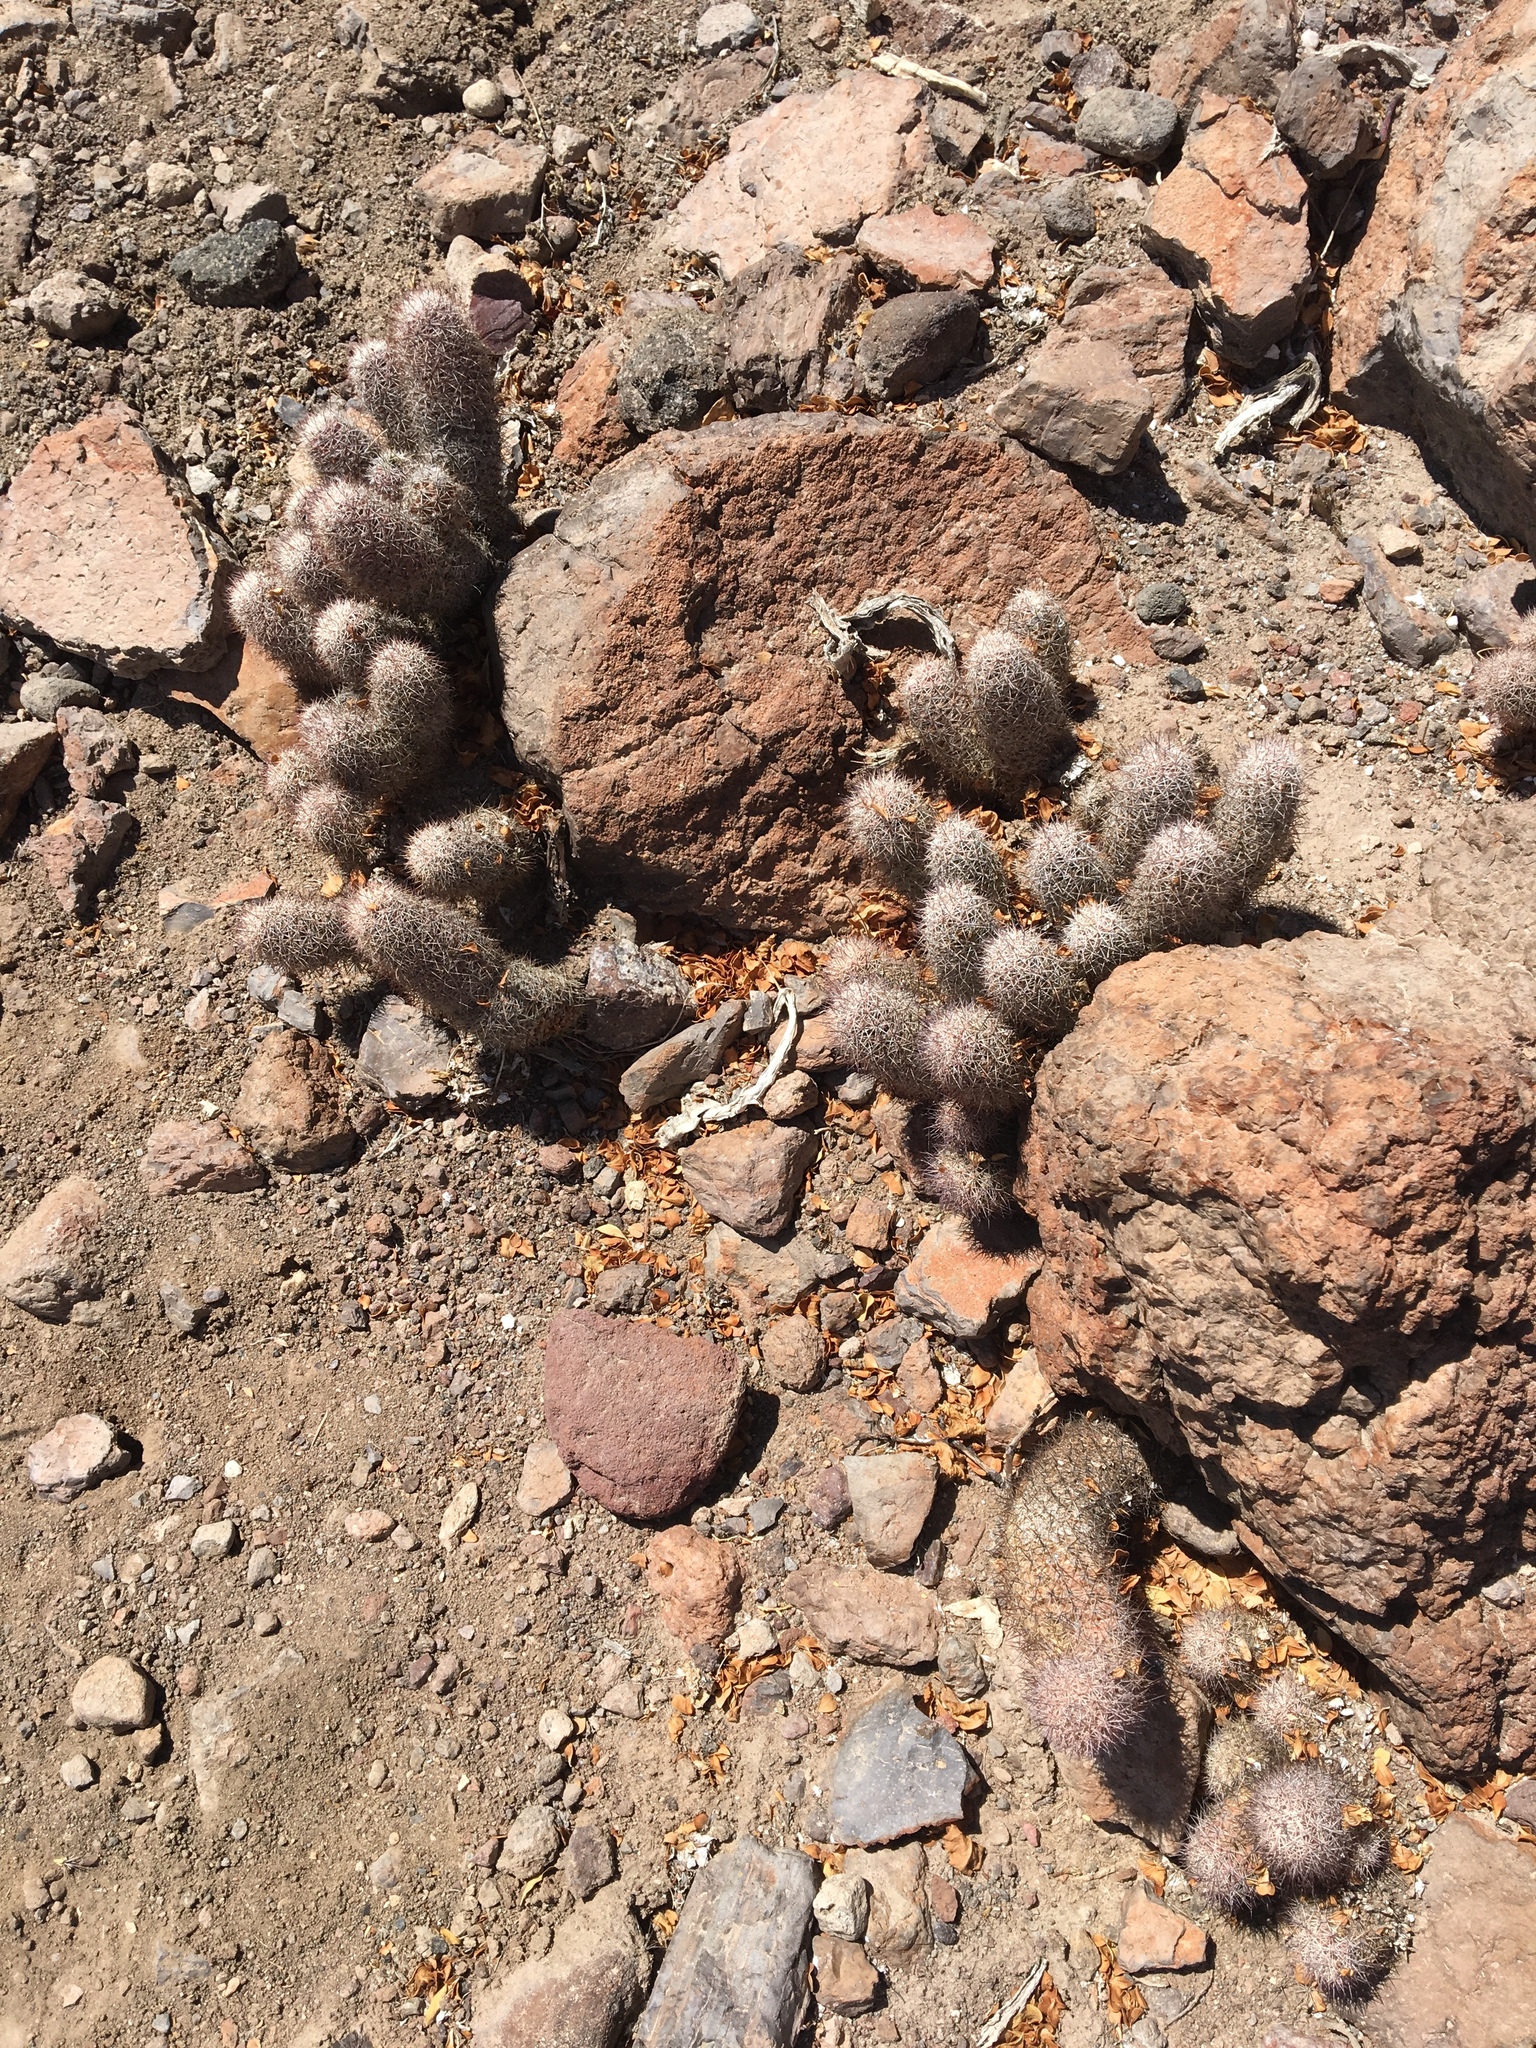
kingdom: Plantae
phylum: Tracheophyta
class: Magnoliopsida
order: Caryophyllales
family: Cactaceae
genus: Cochemiea
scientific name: Cochemiea albicans
